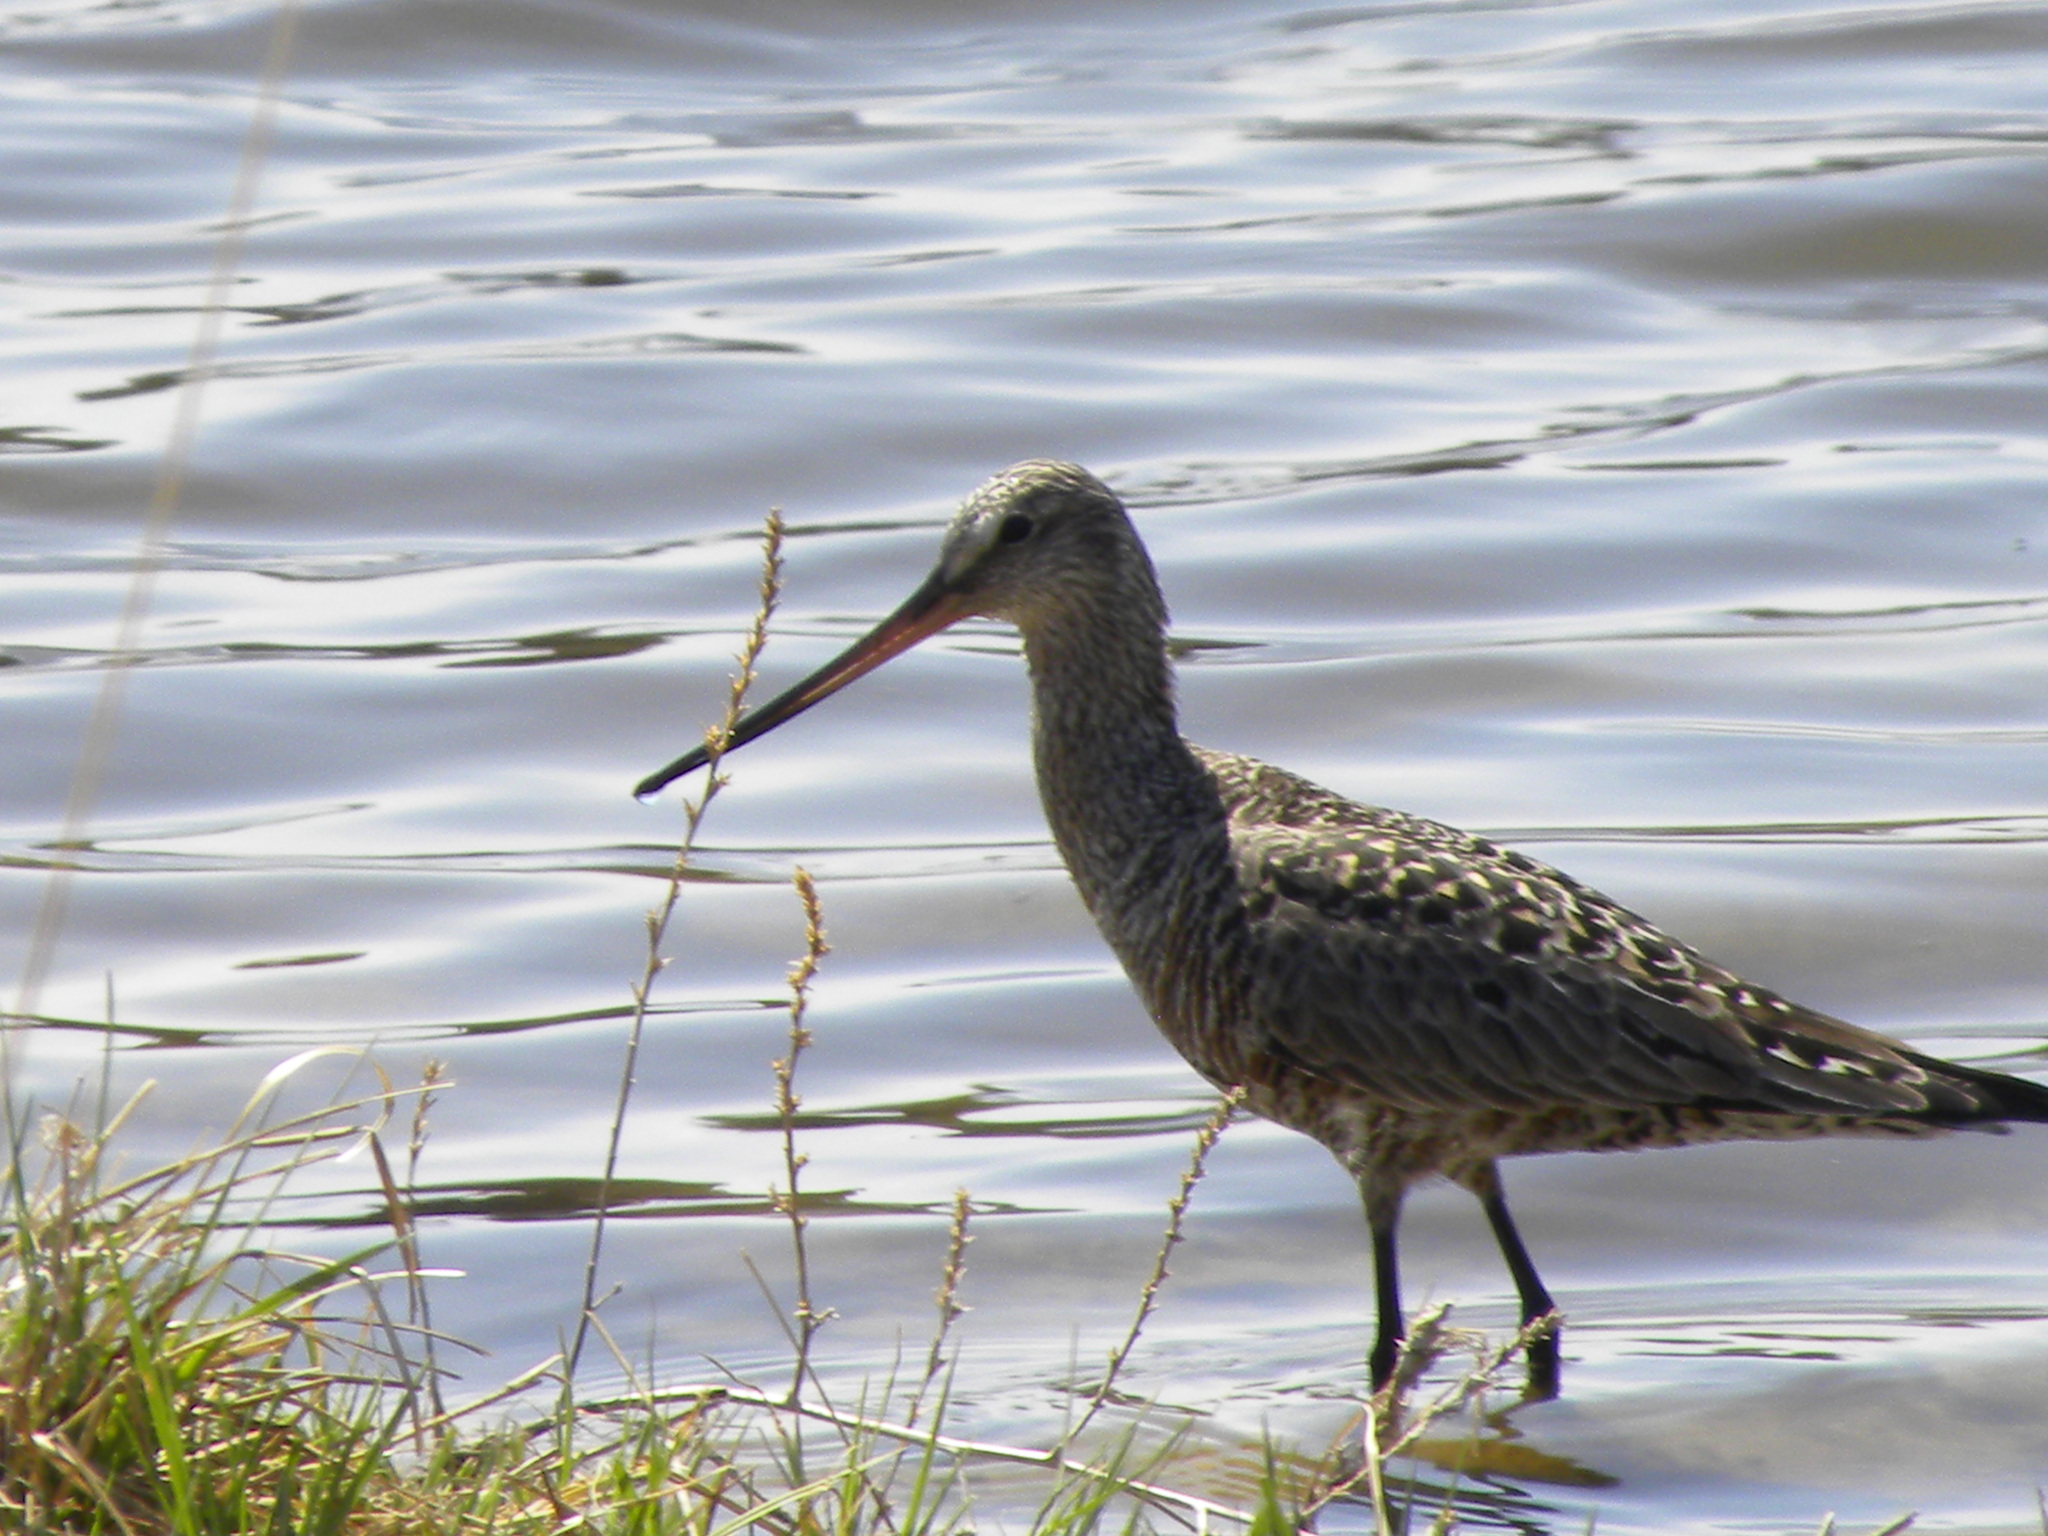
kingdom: Animalia
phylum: Chordata
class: Aves
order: Charadriiformes
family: Scolopacidae
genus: Limosa
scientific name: Limosa haemastica
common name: Hudsonian godwit
